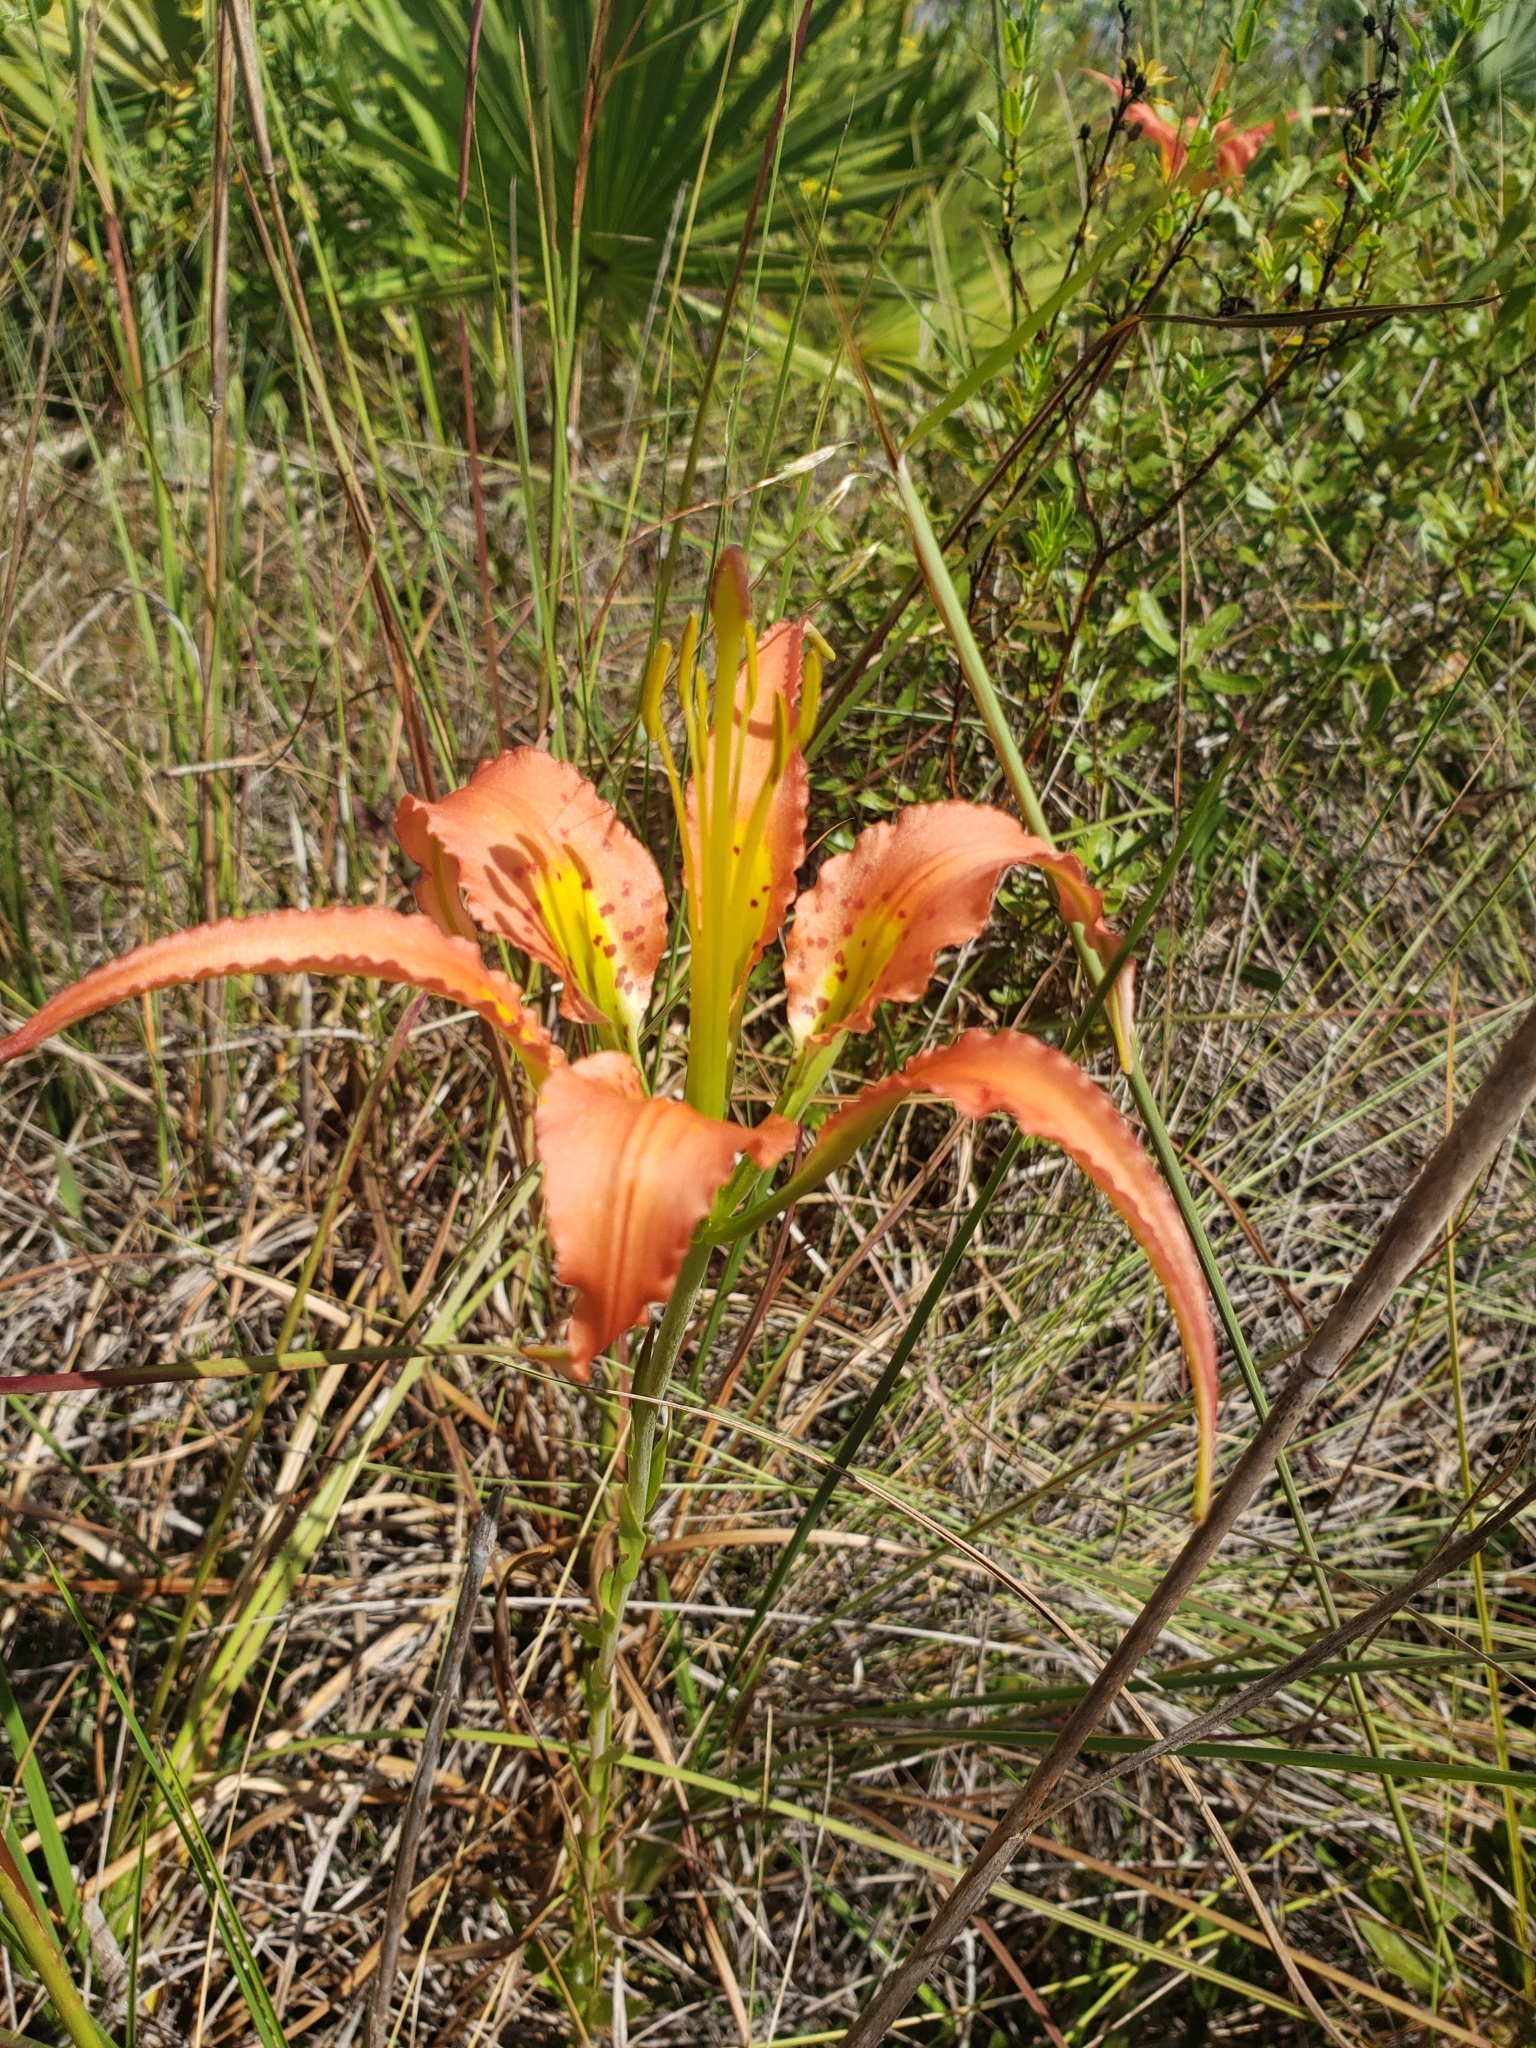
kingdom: Plantae
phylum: Tracheophyta
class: Liliopsida
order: Liliales
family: Liliaceae
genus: Lilium
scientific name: Lilium catesbaei
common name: Catesby's lily
